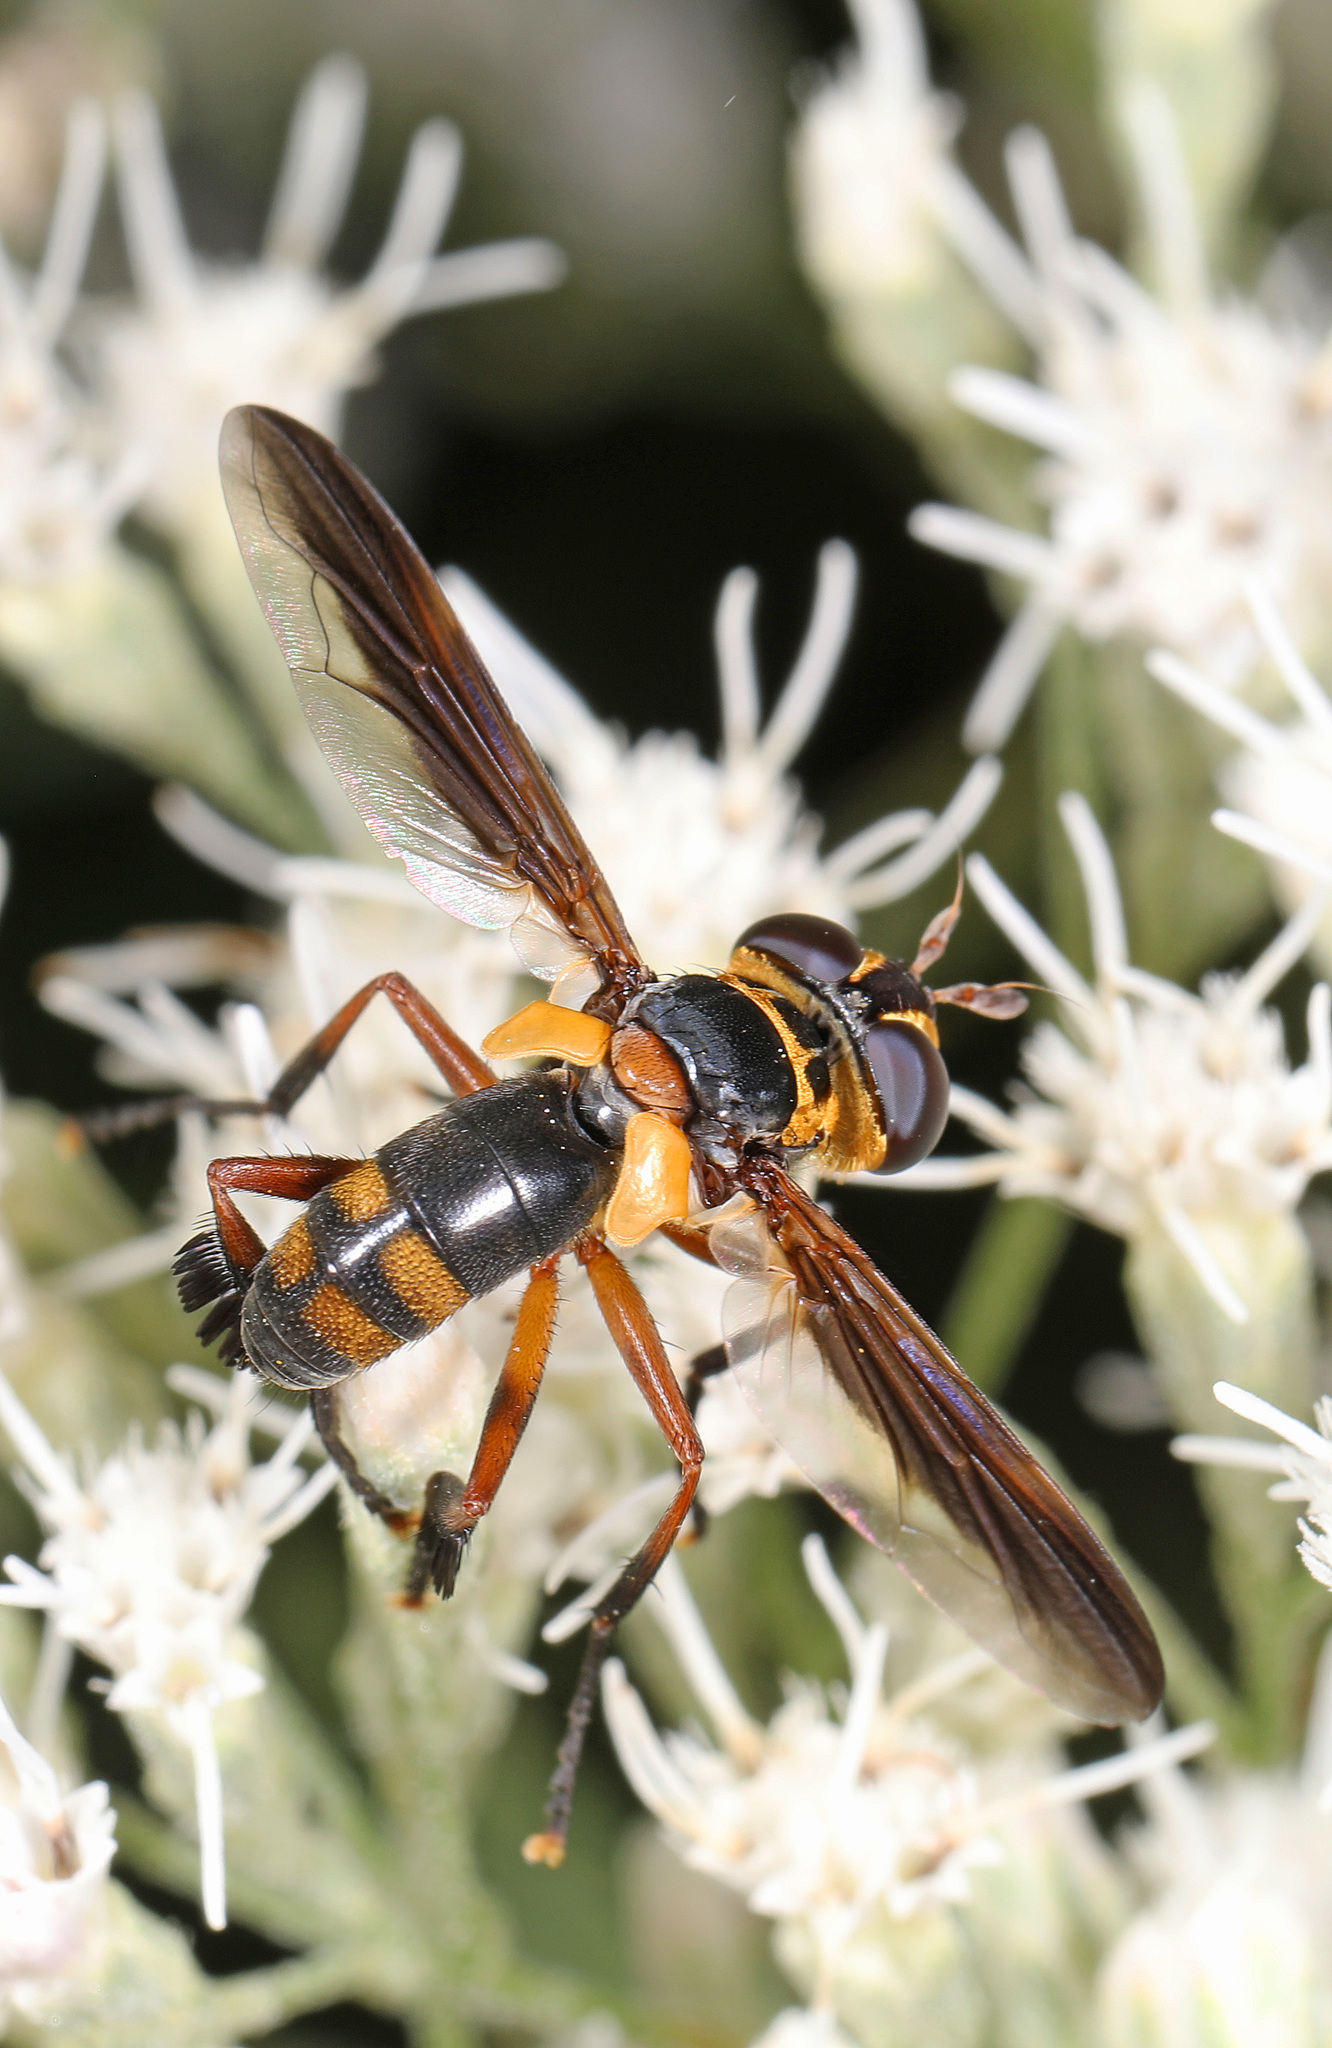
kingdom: Animalia
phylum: Arthropoda
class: Insecta
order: Diptera
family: Tachinidae
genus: Trichopoda
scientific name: Trichopoda plumipes
